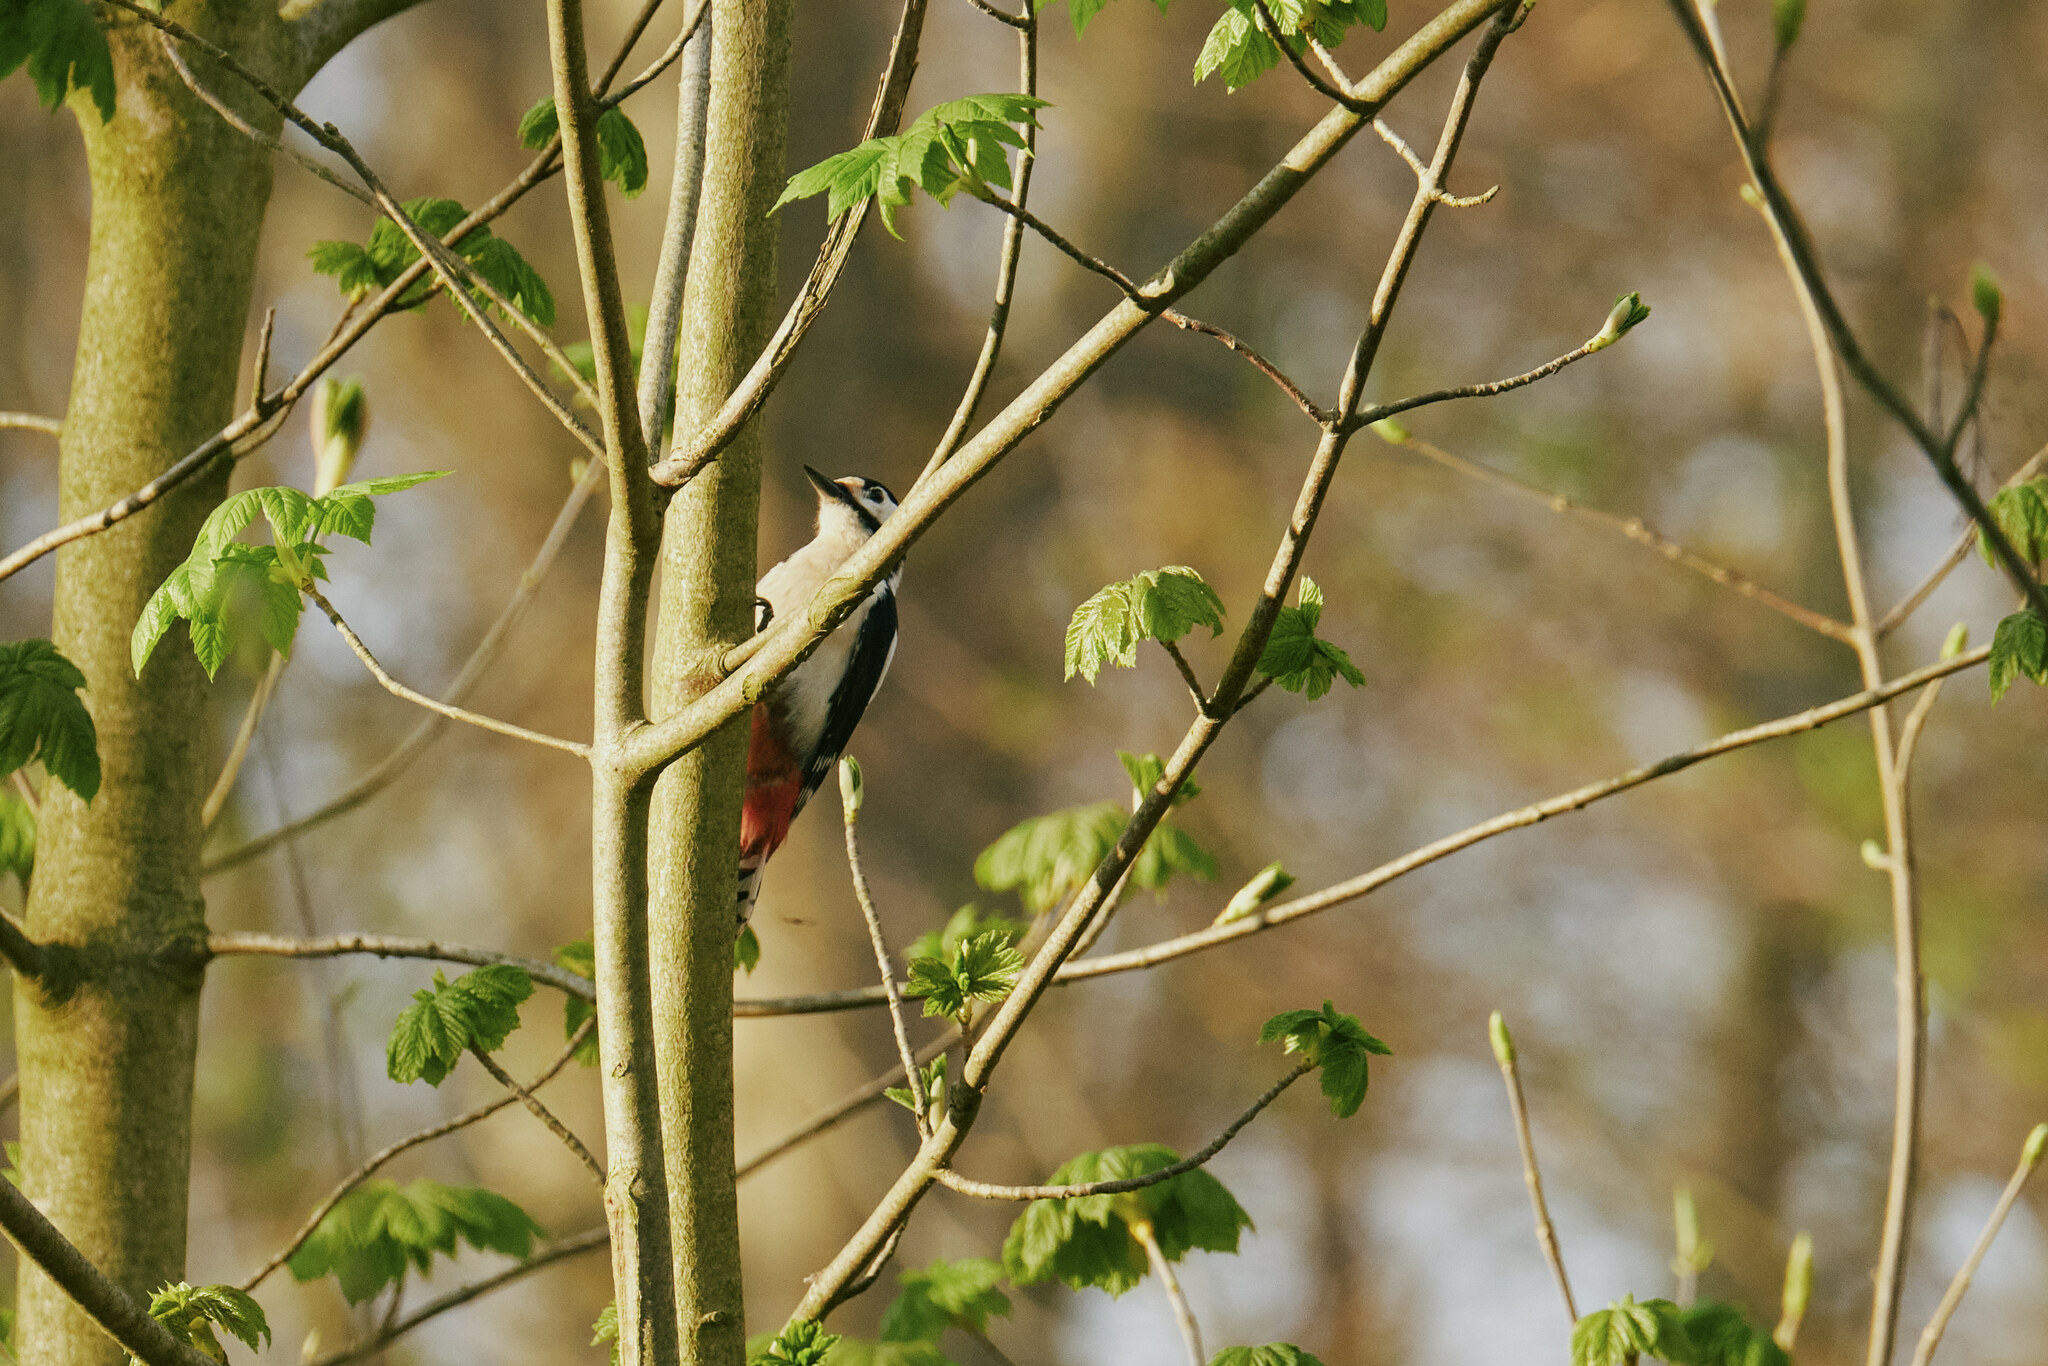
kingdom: Animalia
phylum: Chordata
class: Aves
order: Piciformes
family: Picidae
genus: Dendrocopos
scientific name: Dendrocopos major
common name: Great spotted woodpecker
